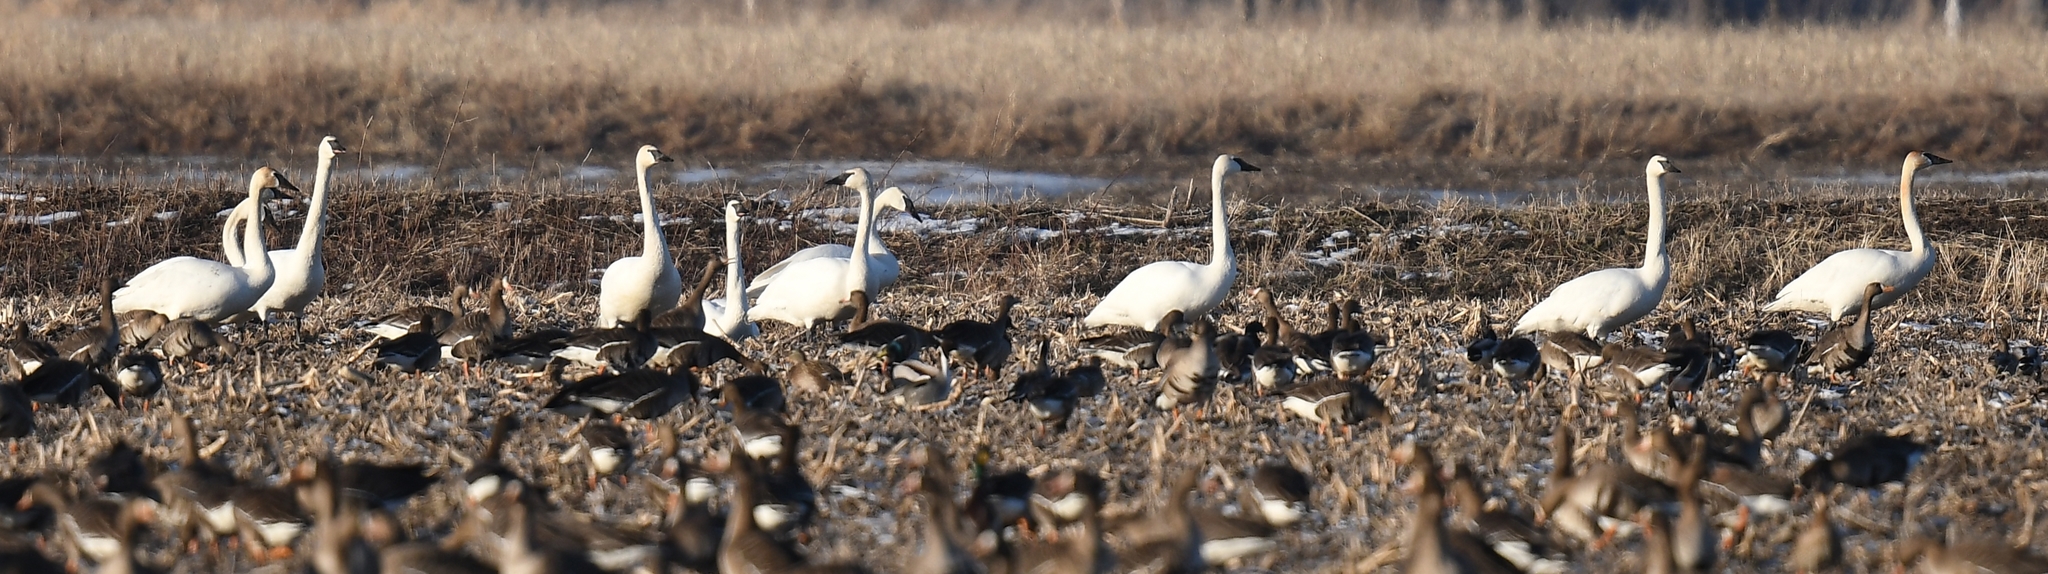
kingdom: Animalia
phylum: Chordata
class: Aves
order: Anseriformes
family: Anatidae
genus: Cygnus
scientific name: Cygnus buccinator
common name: Trumpeter swan
